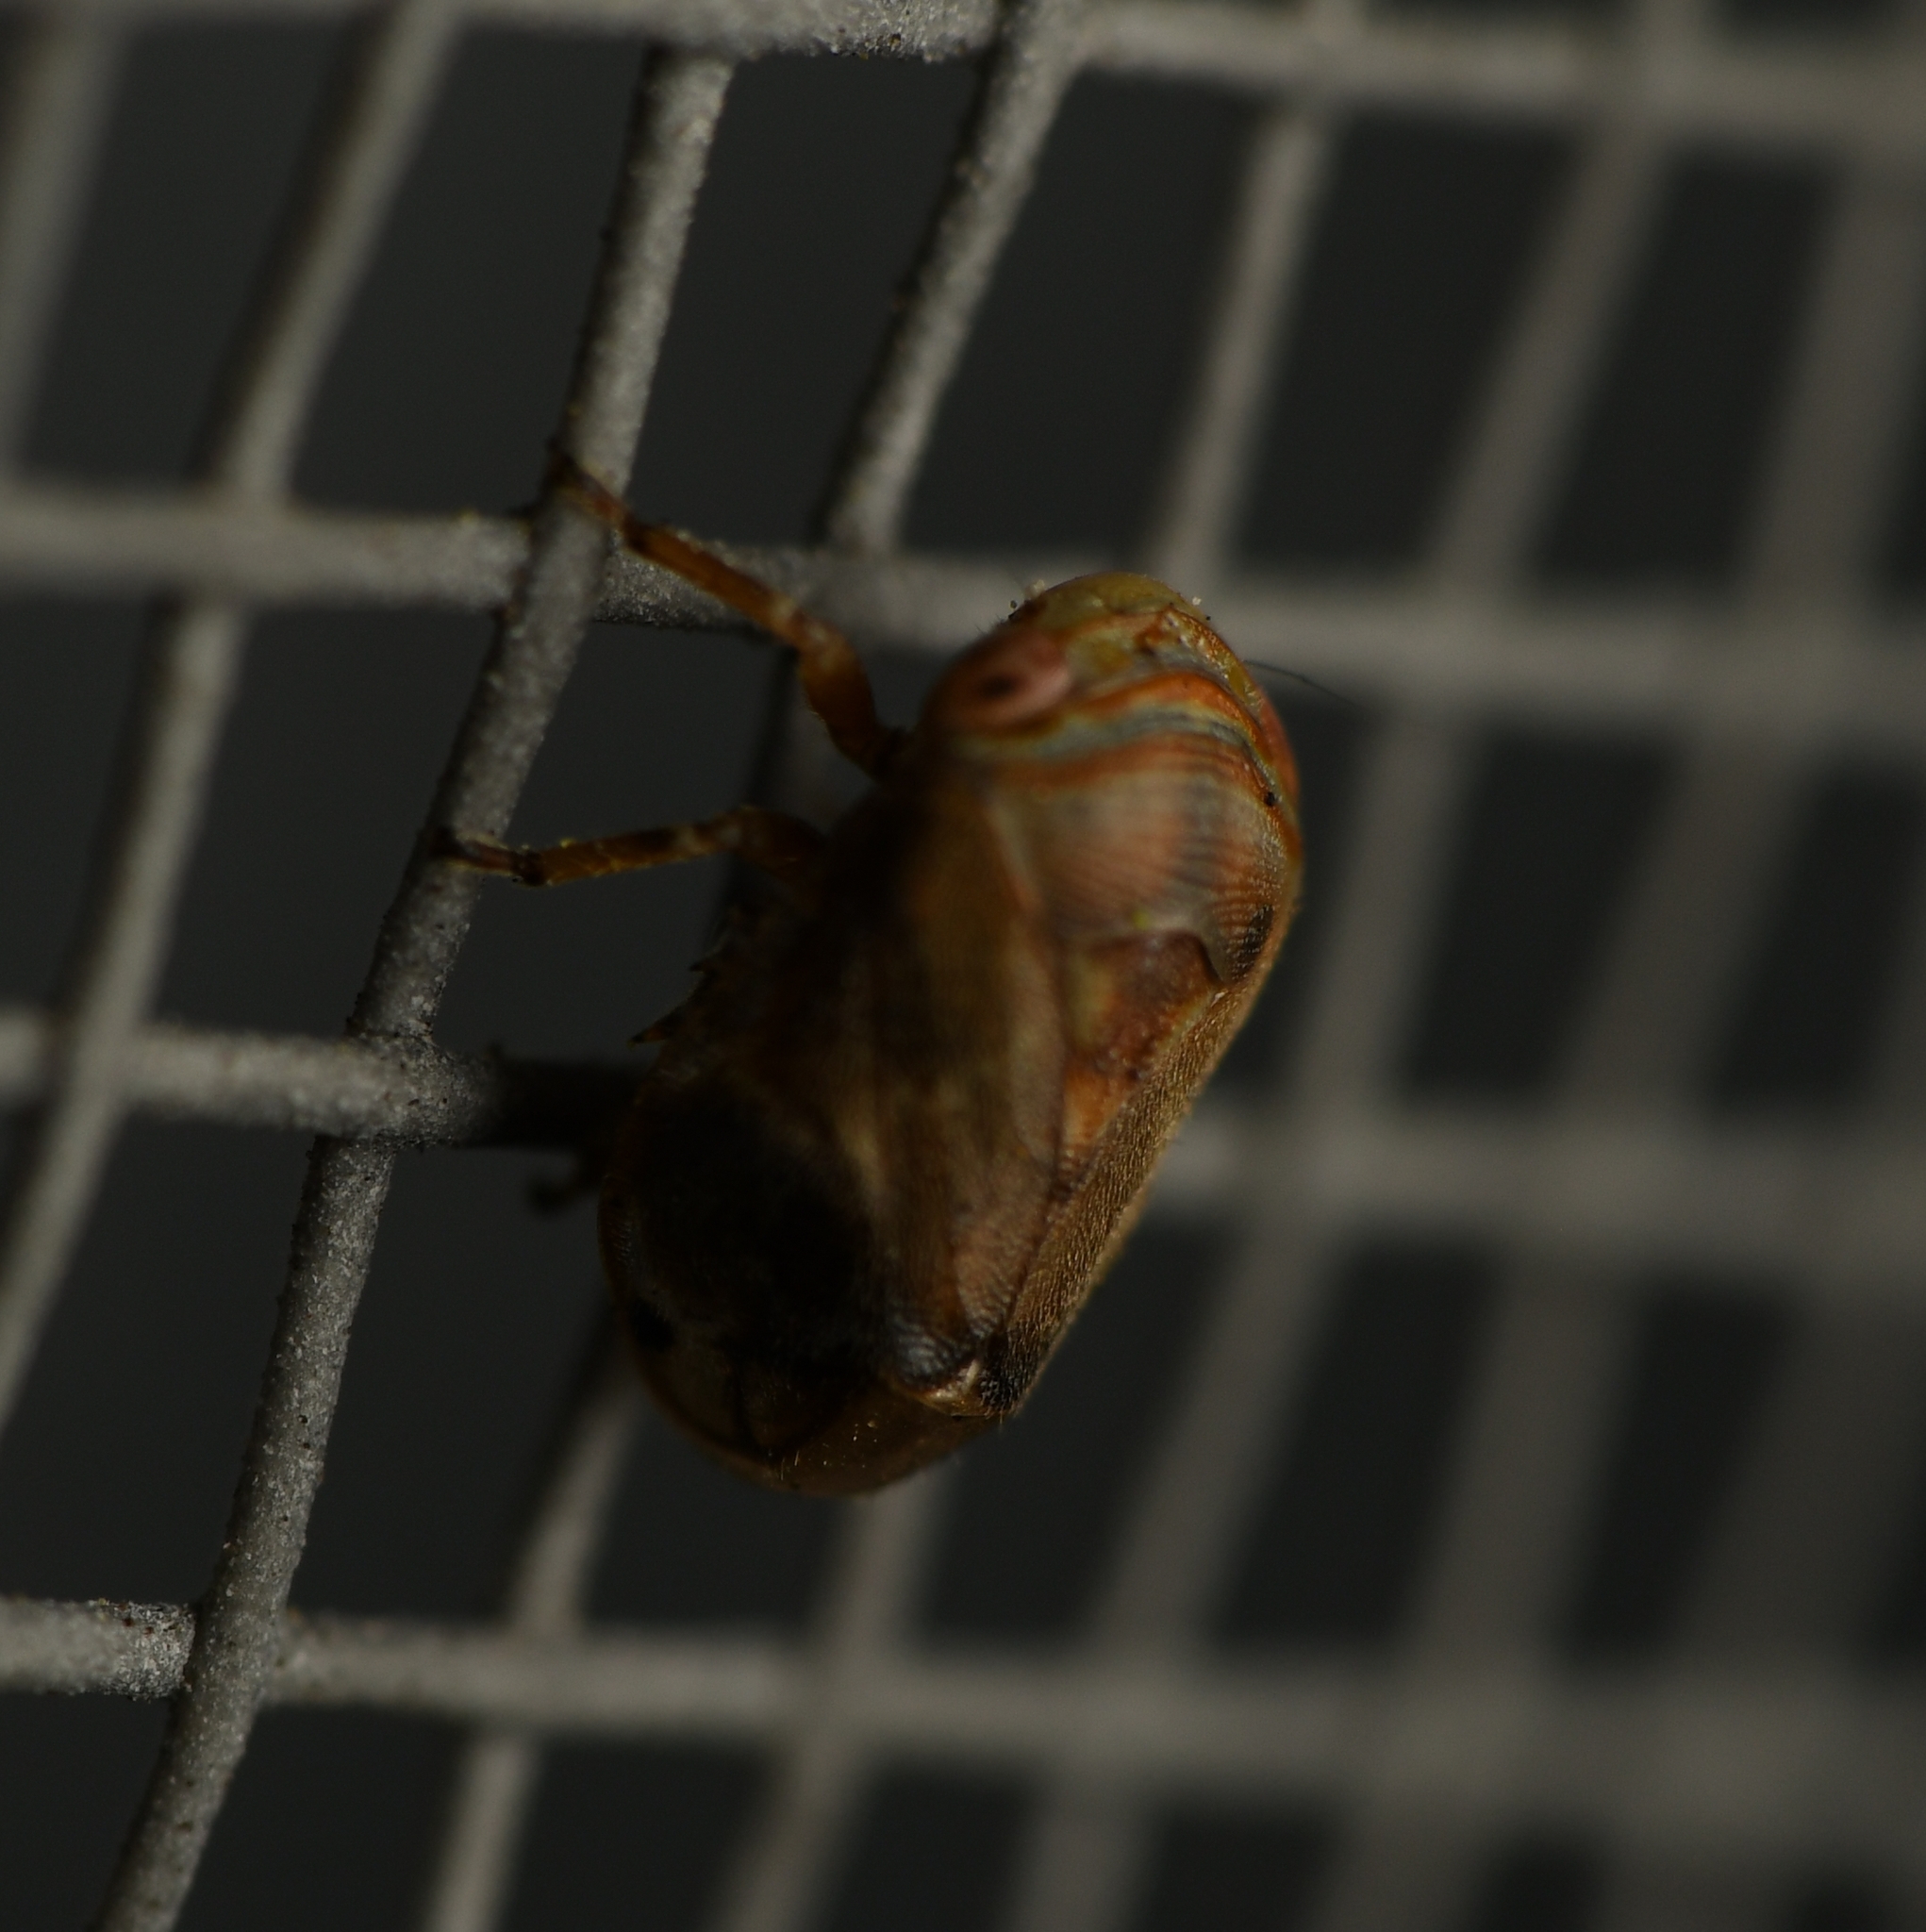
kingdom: Animalia
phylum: Arthropoda
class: Insecta
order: Hemiptera
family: Clastopteridae
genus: Clastoptera
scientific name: Clastoptera querci
